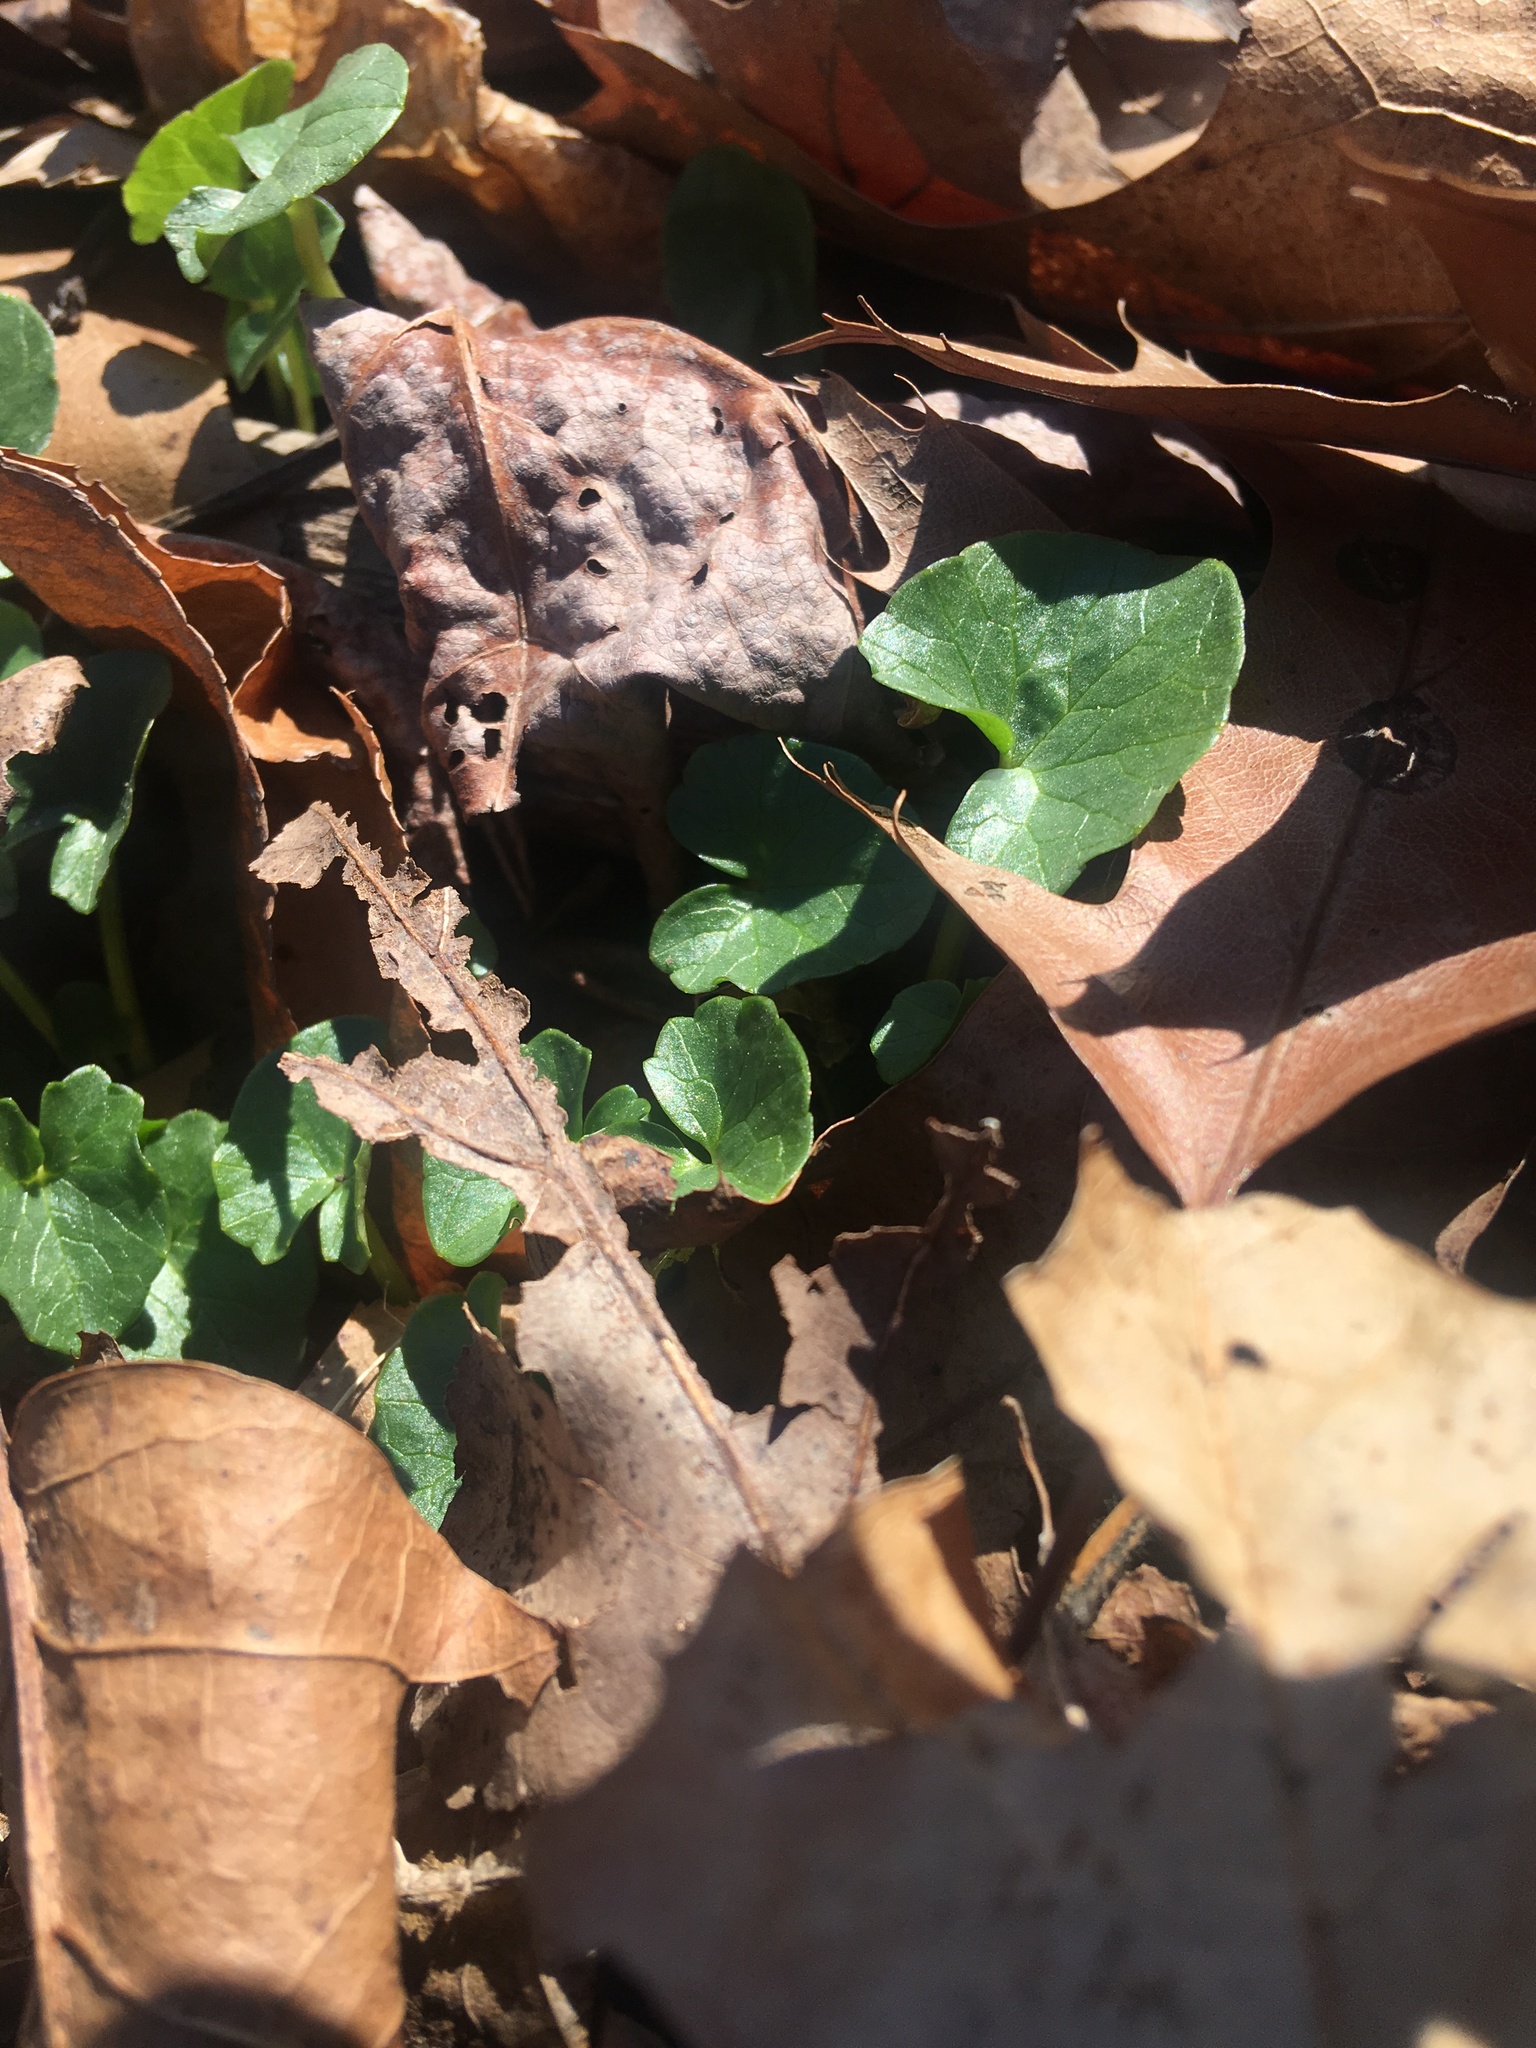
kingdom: Plantae
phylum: Tracheophyta
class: Magnoliopsida
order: Ranunculales
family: Ranunculaceae
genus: Ficaria
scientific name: Ficaria verna
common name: Lesser celandine
